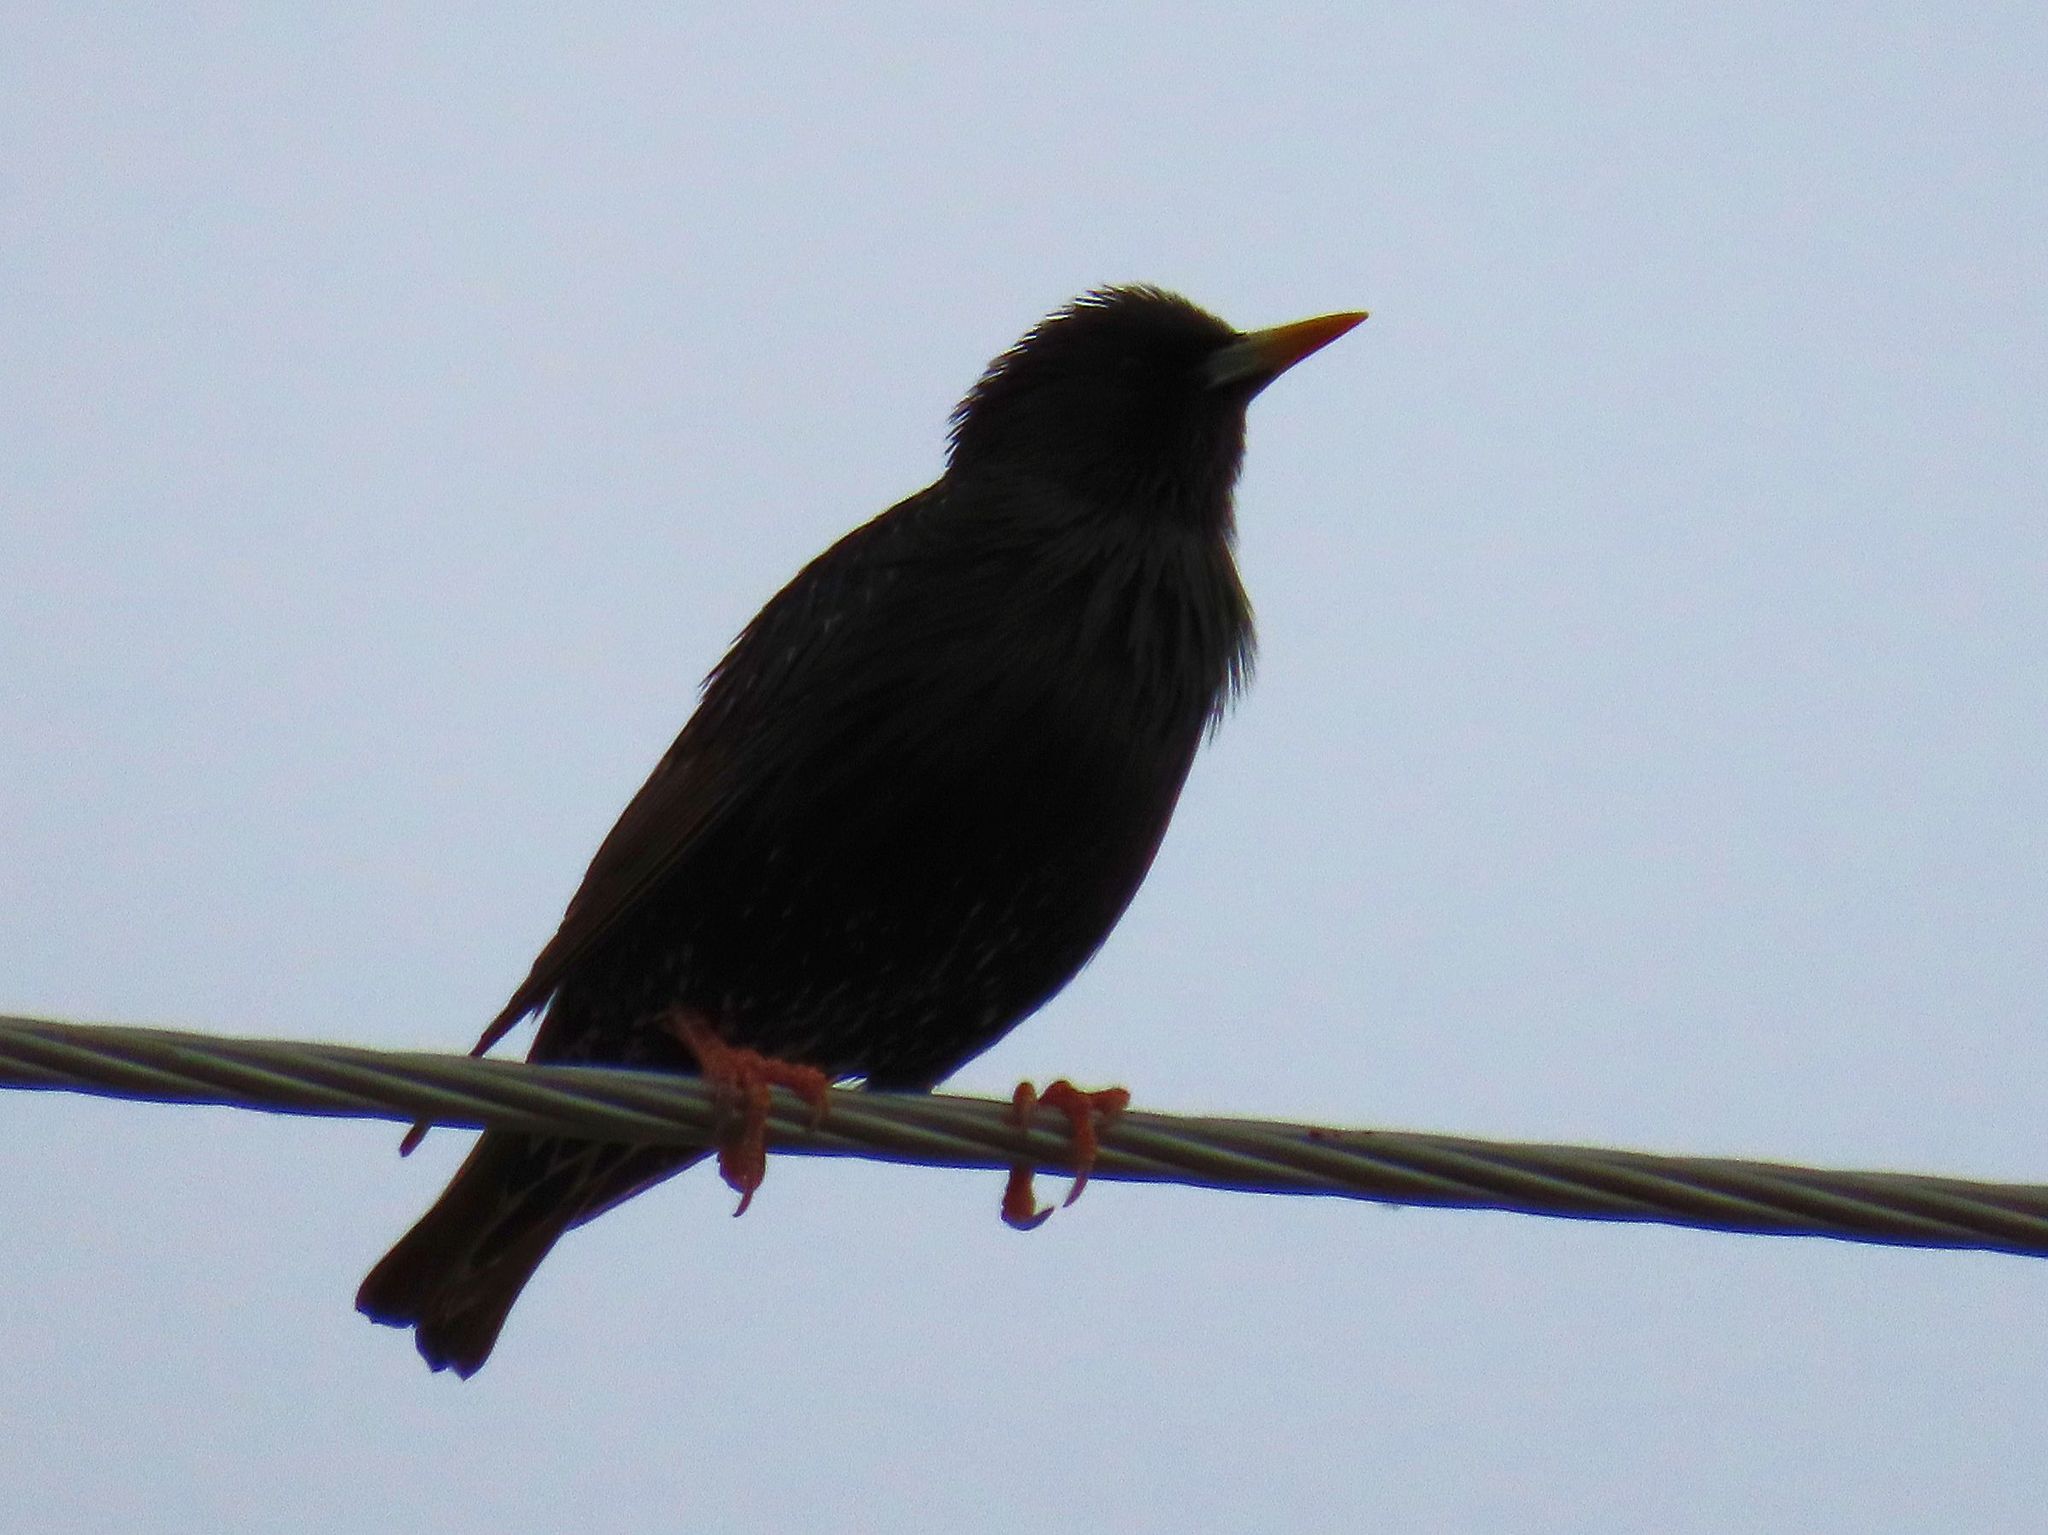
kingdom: Animalia
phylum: Chordata
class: Aves
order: Passeriformes
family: Sturnidae
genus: Sturnus
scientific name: Sturnus vulgaris
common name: Common starling
